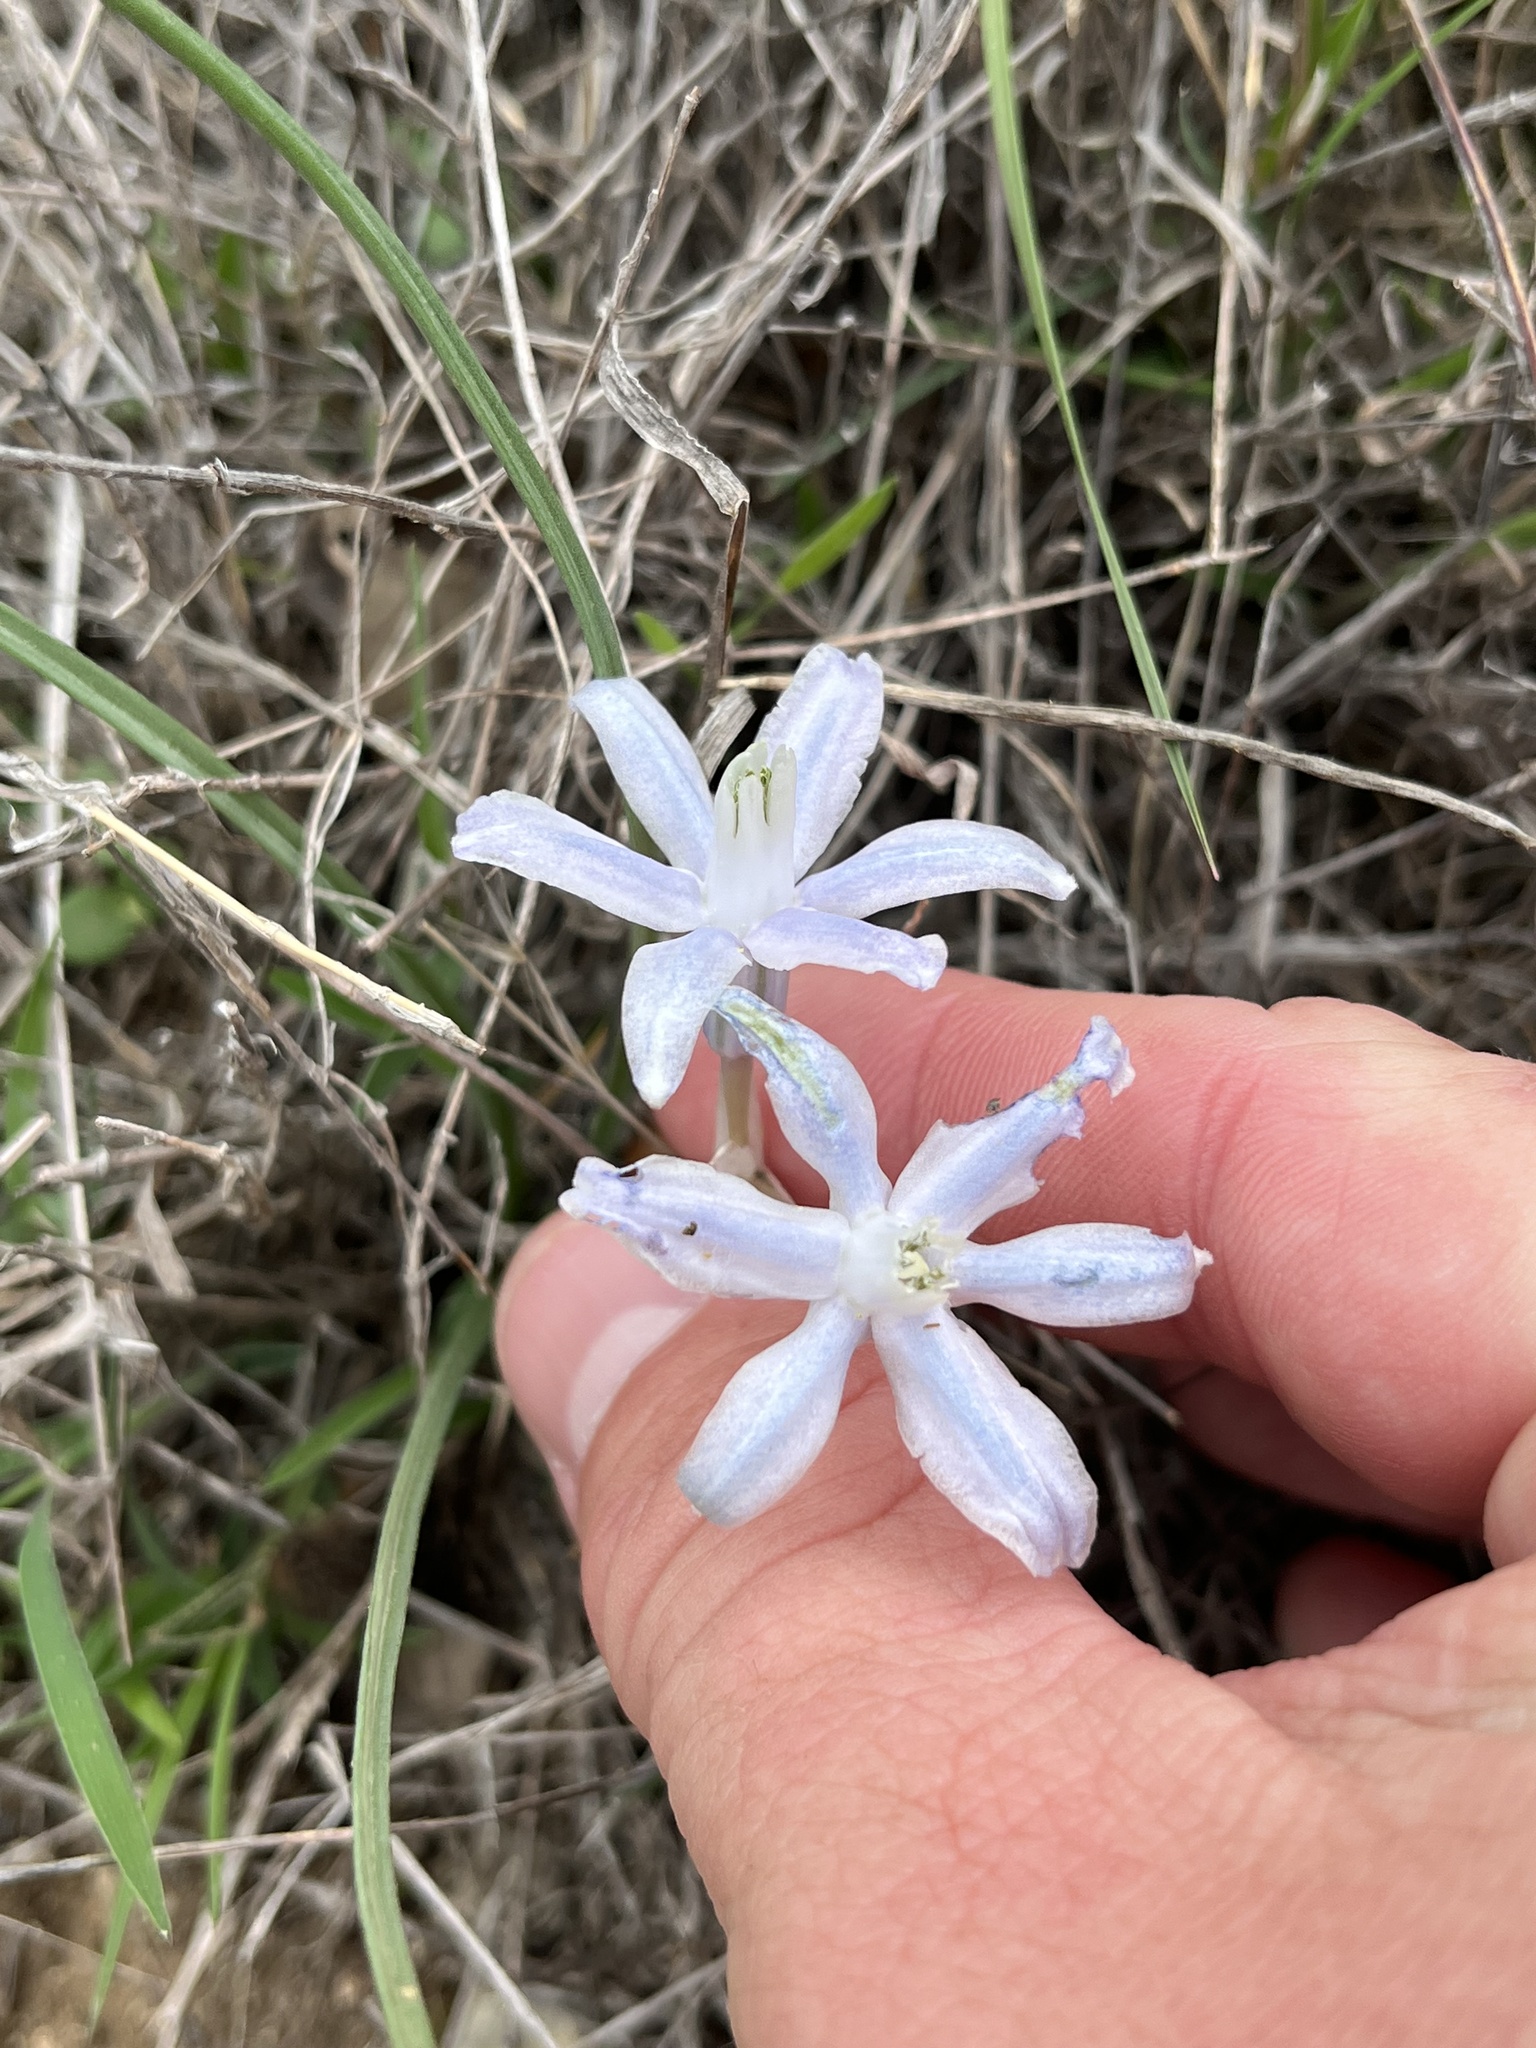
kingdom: Plantae
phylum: Tracheophyta
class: Liliopsida
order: Asparagales
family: Asparagaceae
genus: Androstephium
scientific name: Androstephium coeruleum
